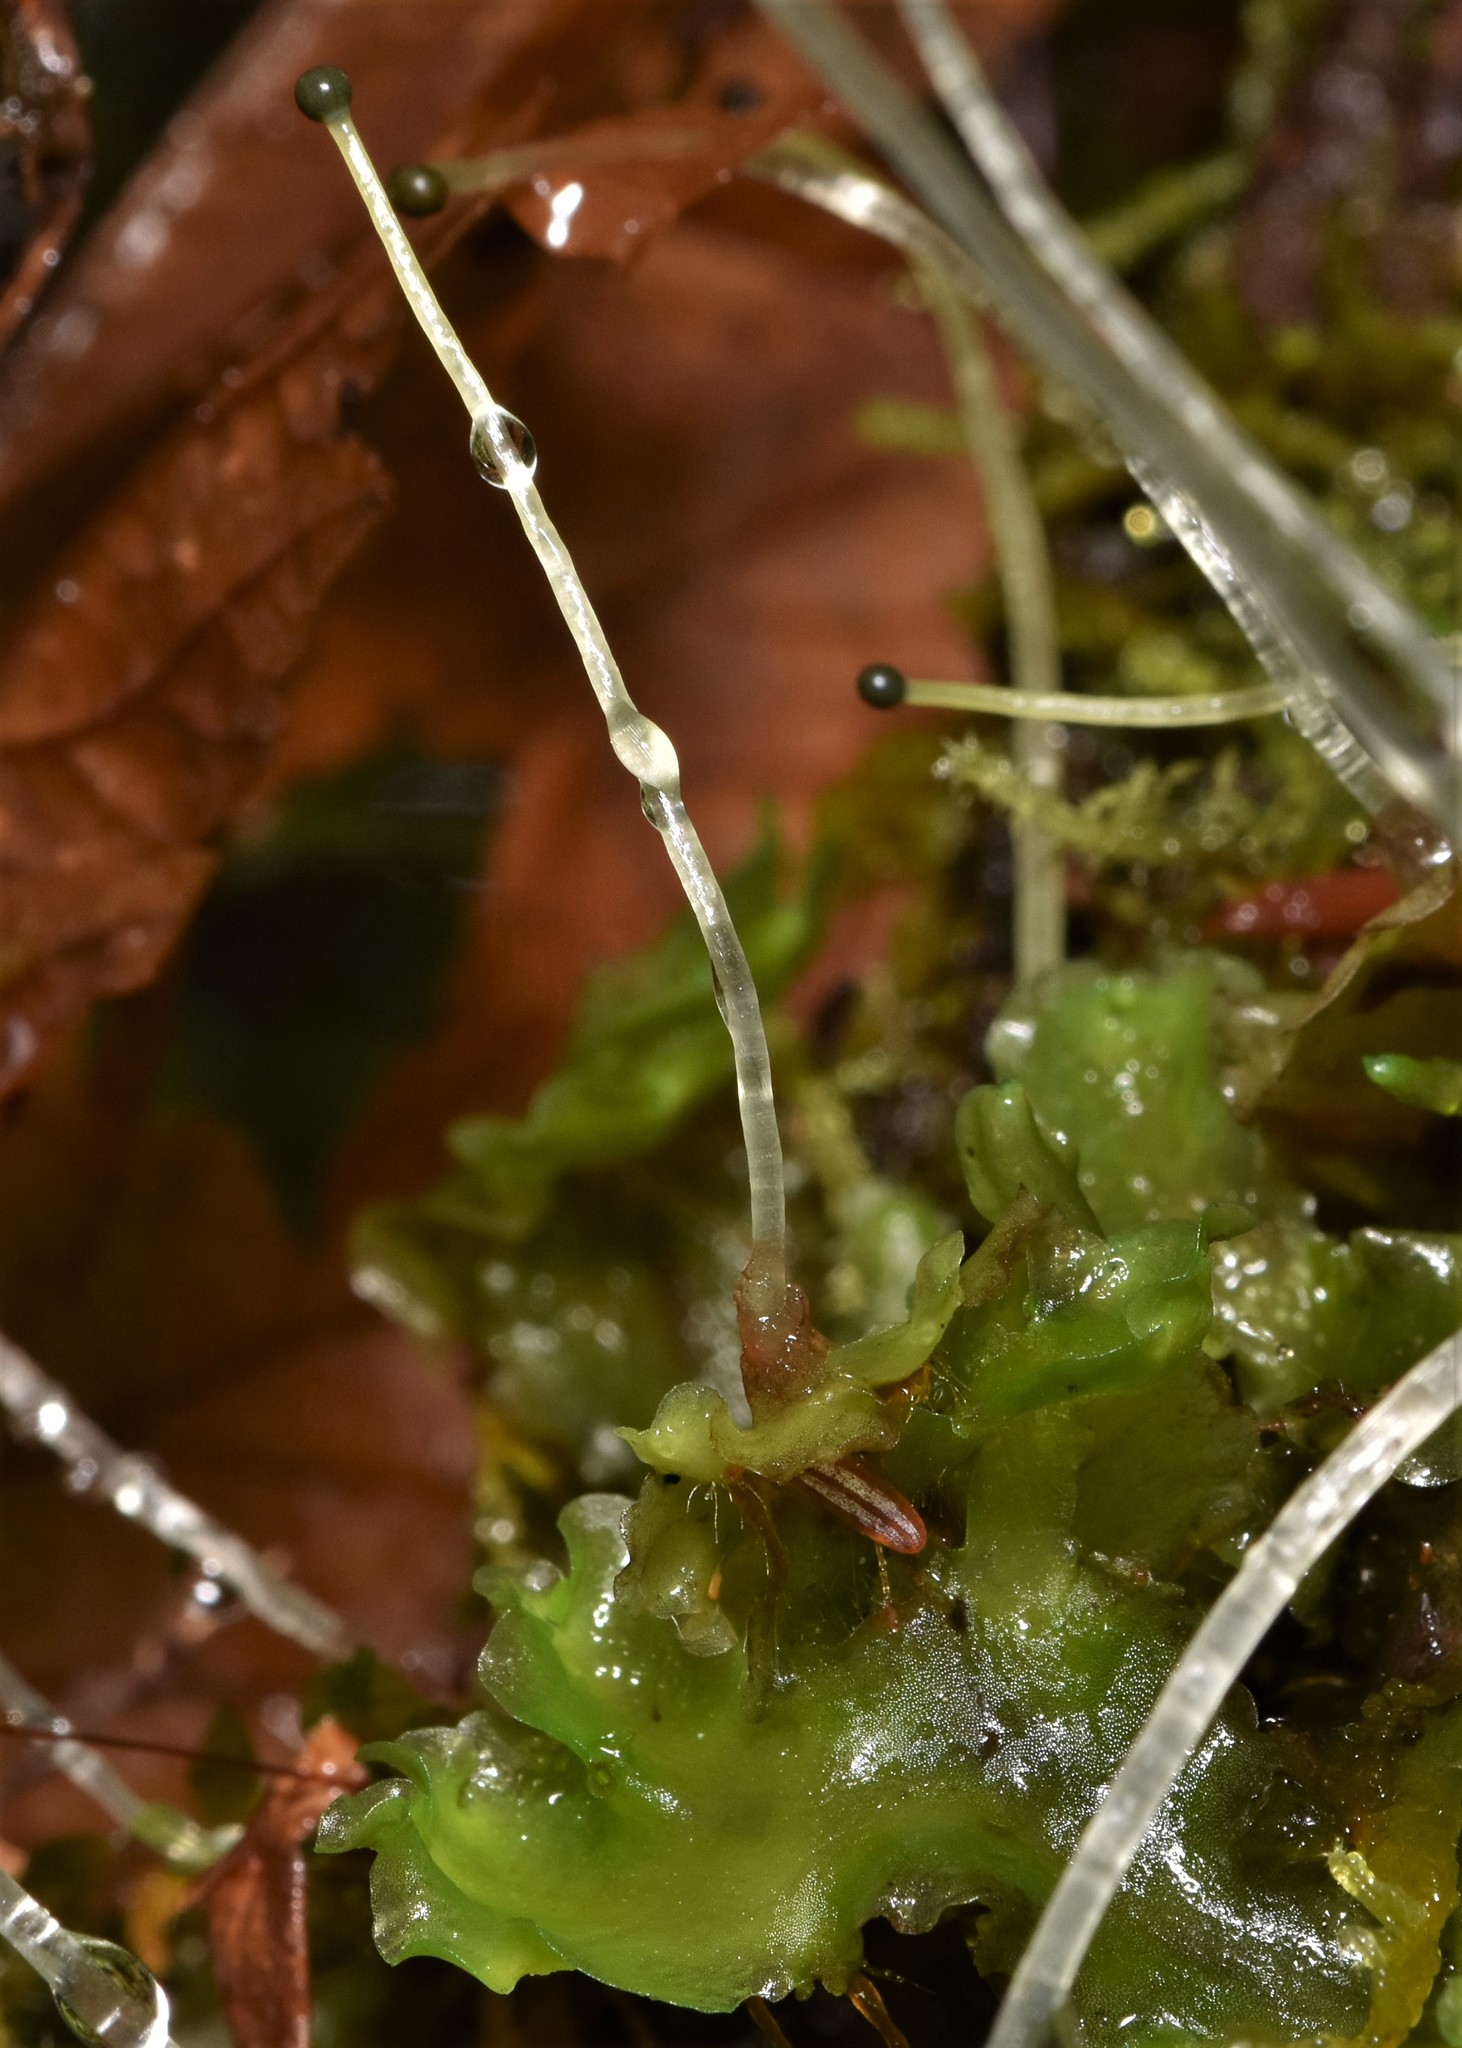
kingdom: Plantae
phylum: Marchantiophyta
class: Jungermanniopsida
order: Pelliales
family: Pelliaceae
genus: Pellia
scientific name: Pellia neesiana
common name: Nees  pellia
